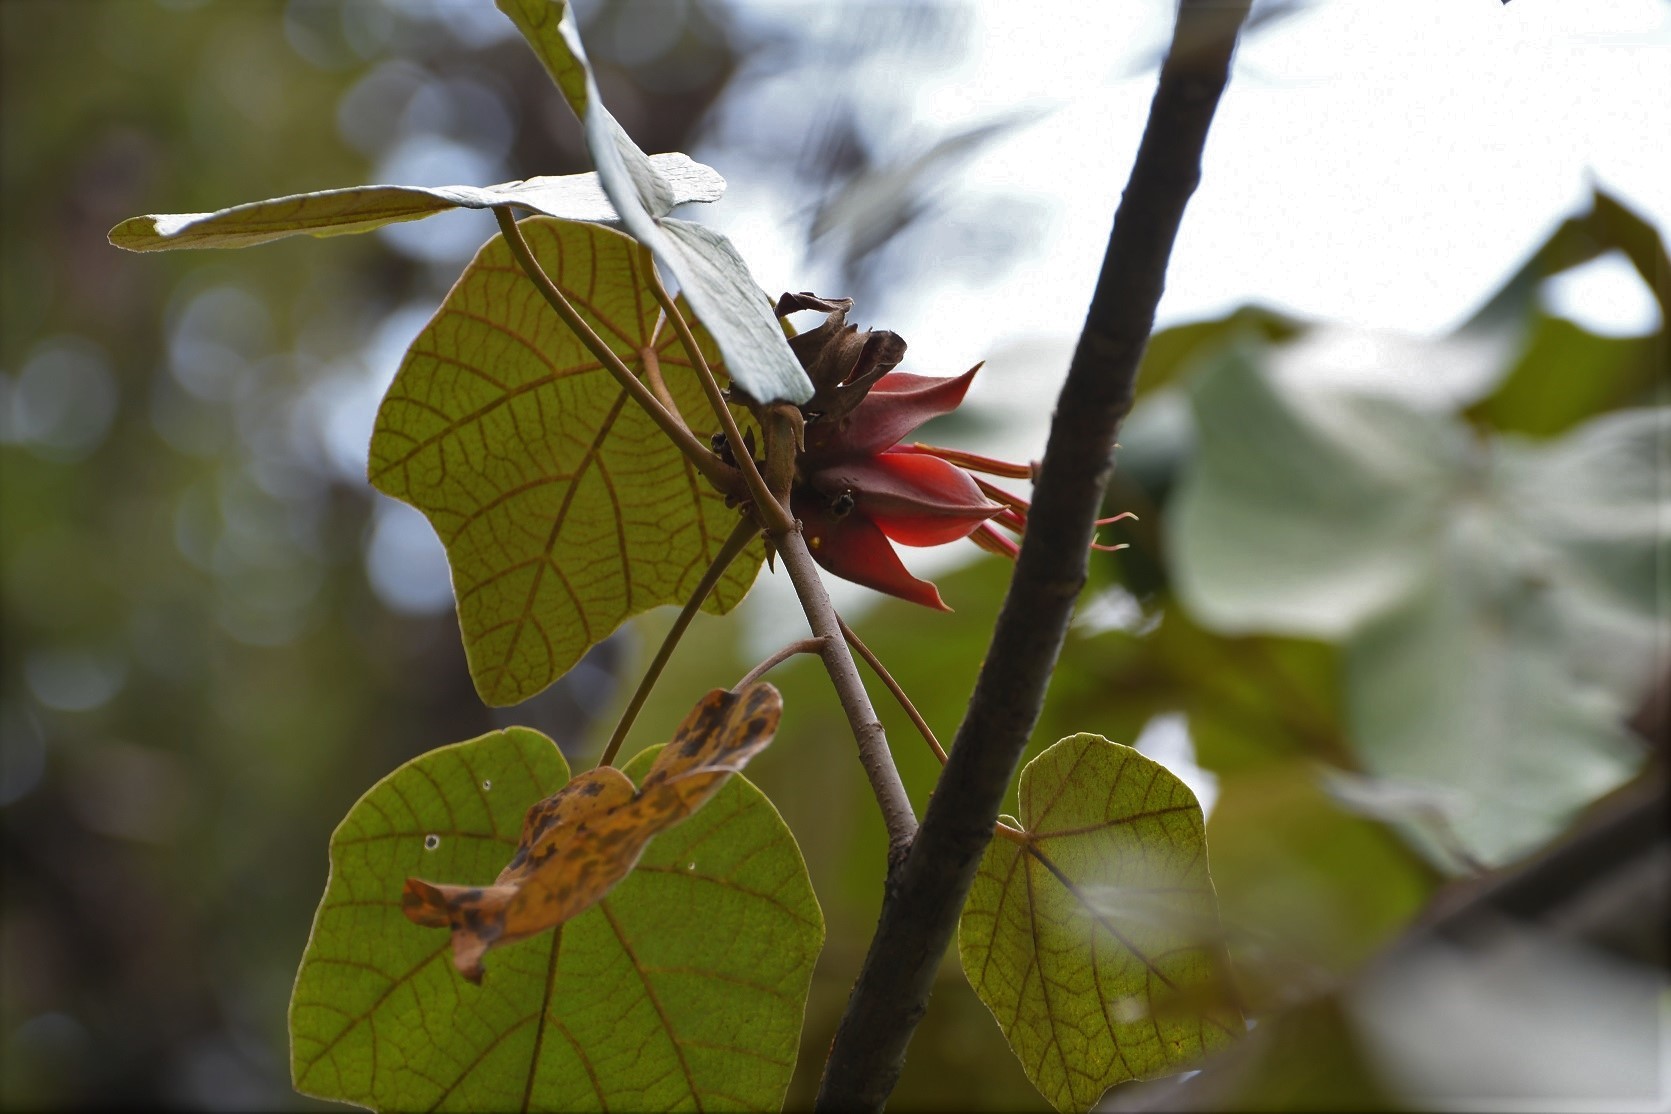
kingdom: Plantae
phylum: Tracheophyta
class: Magnoliopsida
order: Malvales
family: Malvaceae
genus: Chiranthodendron
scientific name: Chiranthodendron pentadactylon
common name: Mexican-hat-plant
